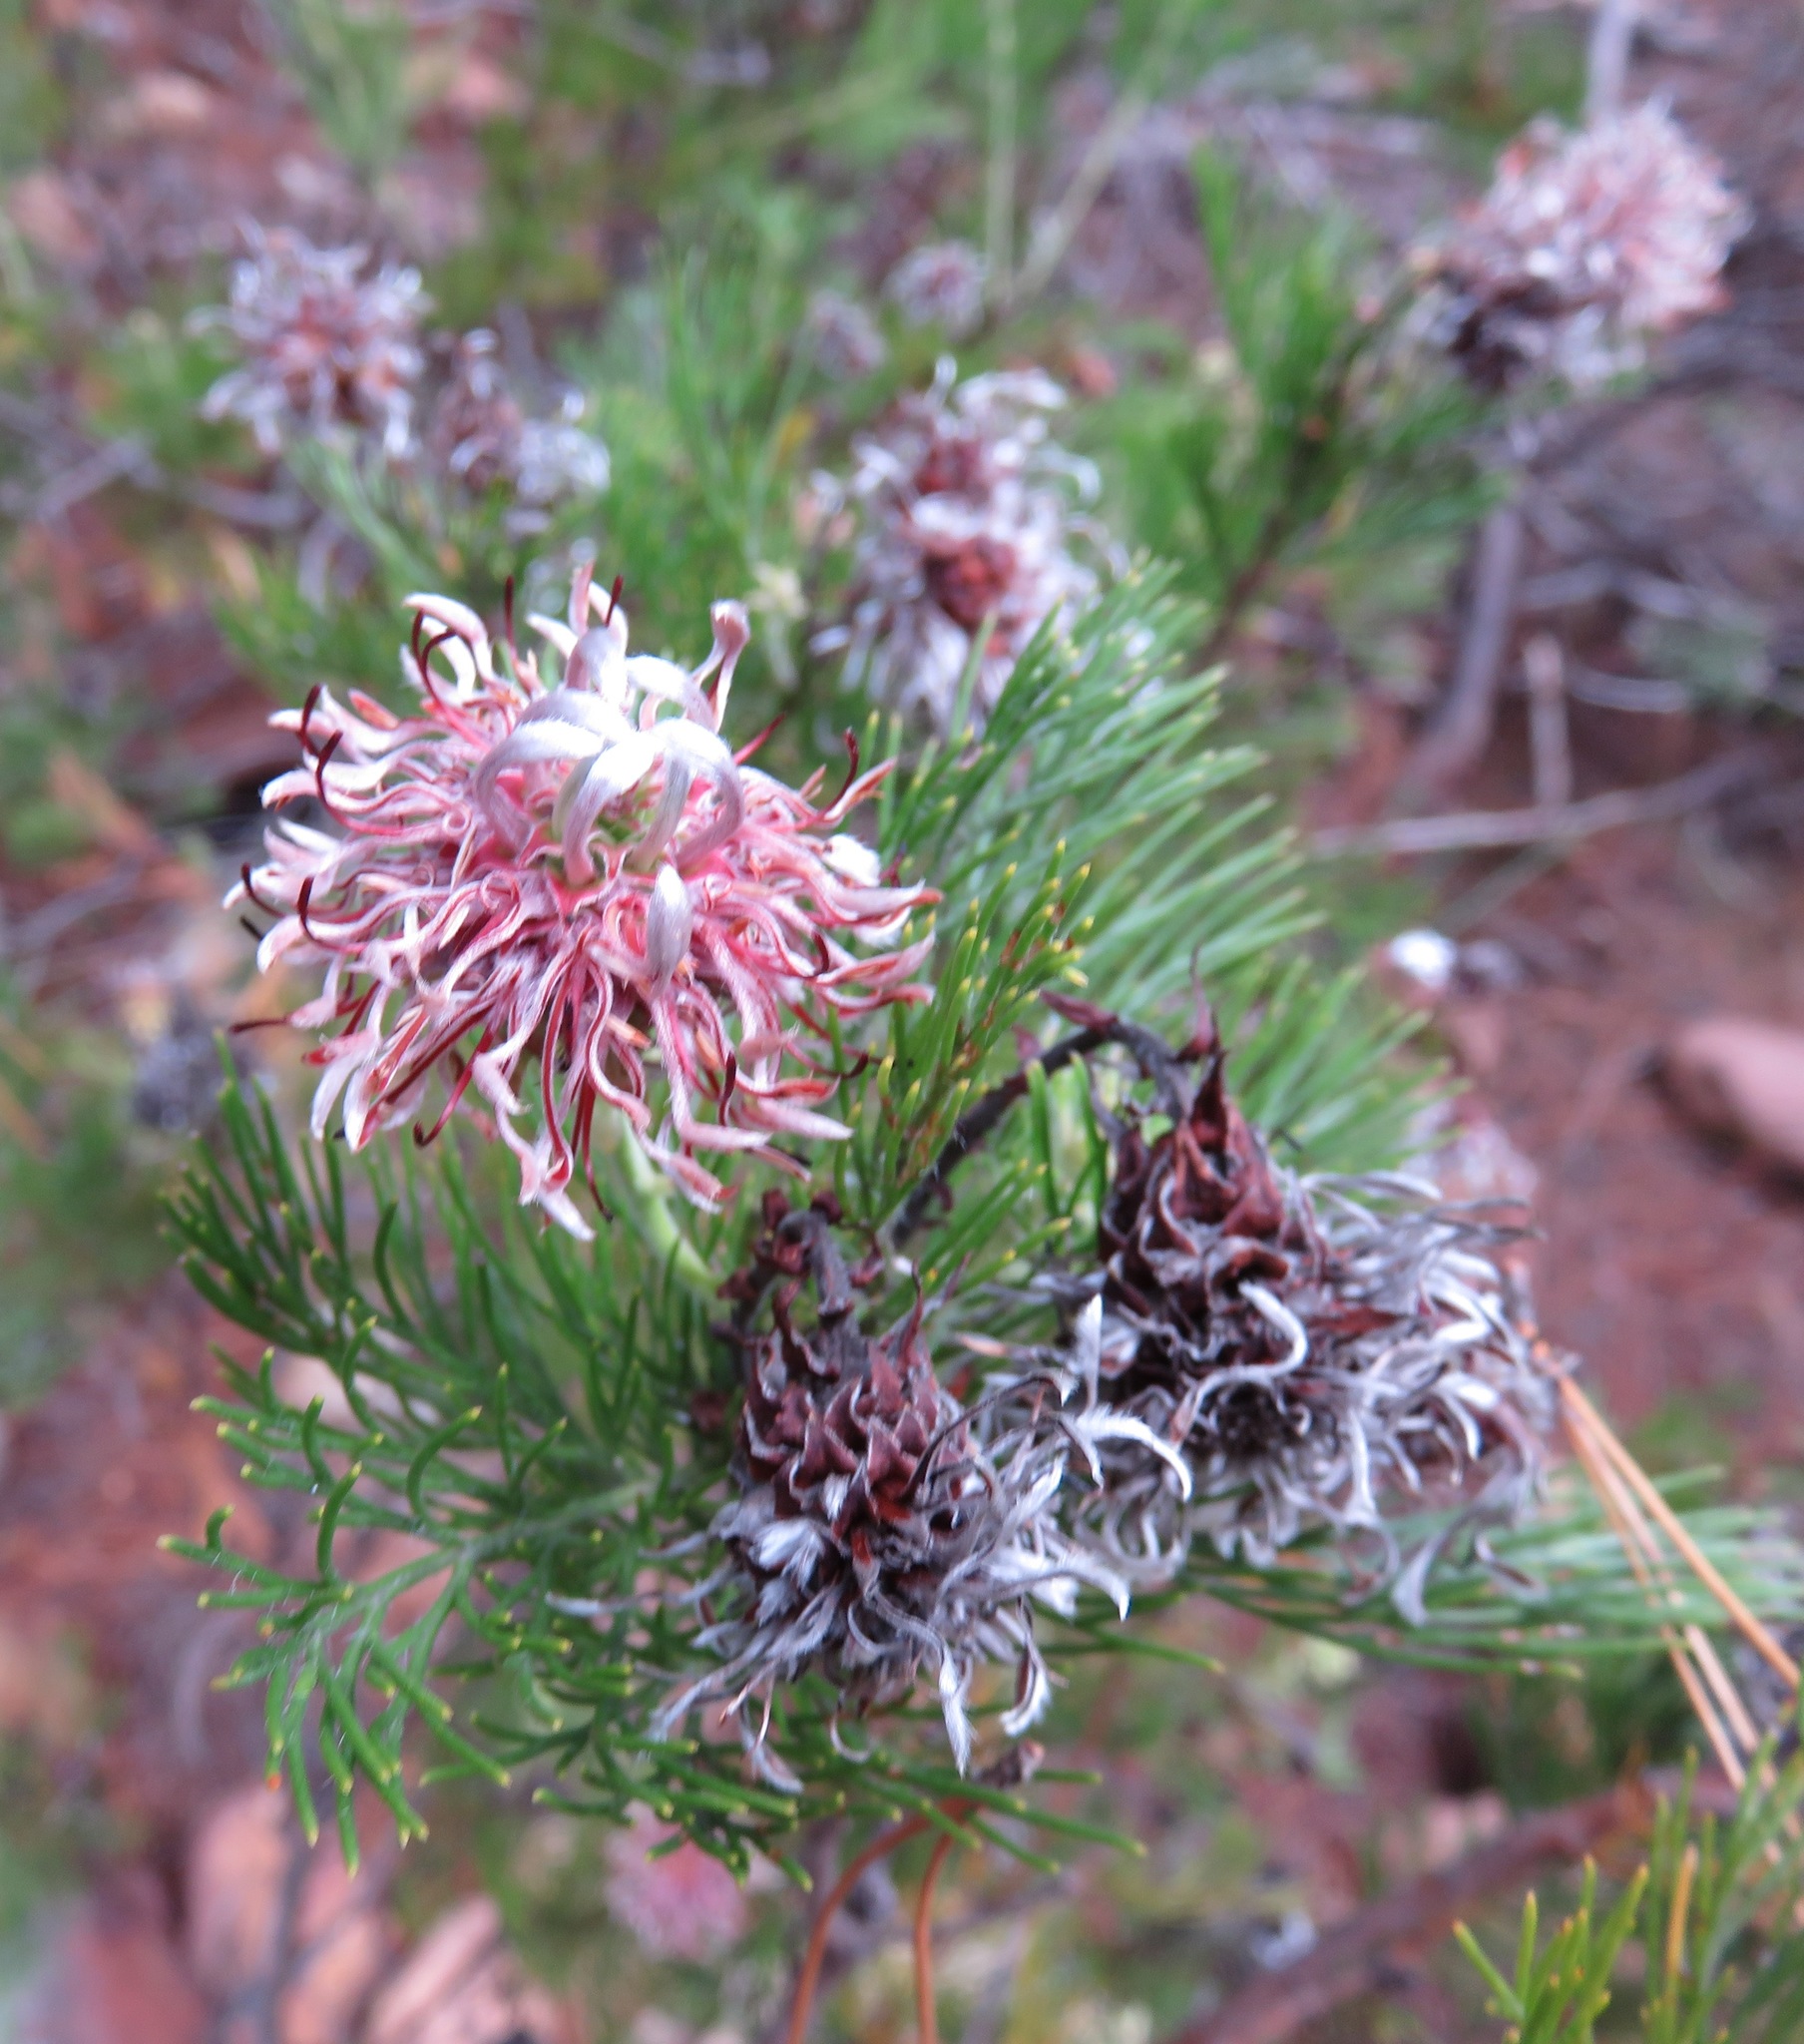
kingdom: Plantae
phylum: Tracheophyta
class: Magnoliopsida
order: Proteales
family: Proteaceae
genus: Serruria
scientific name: Serruria acrocarpa
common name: Common rootstock spiderhead
